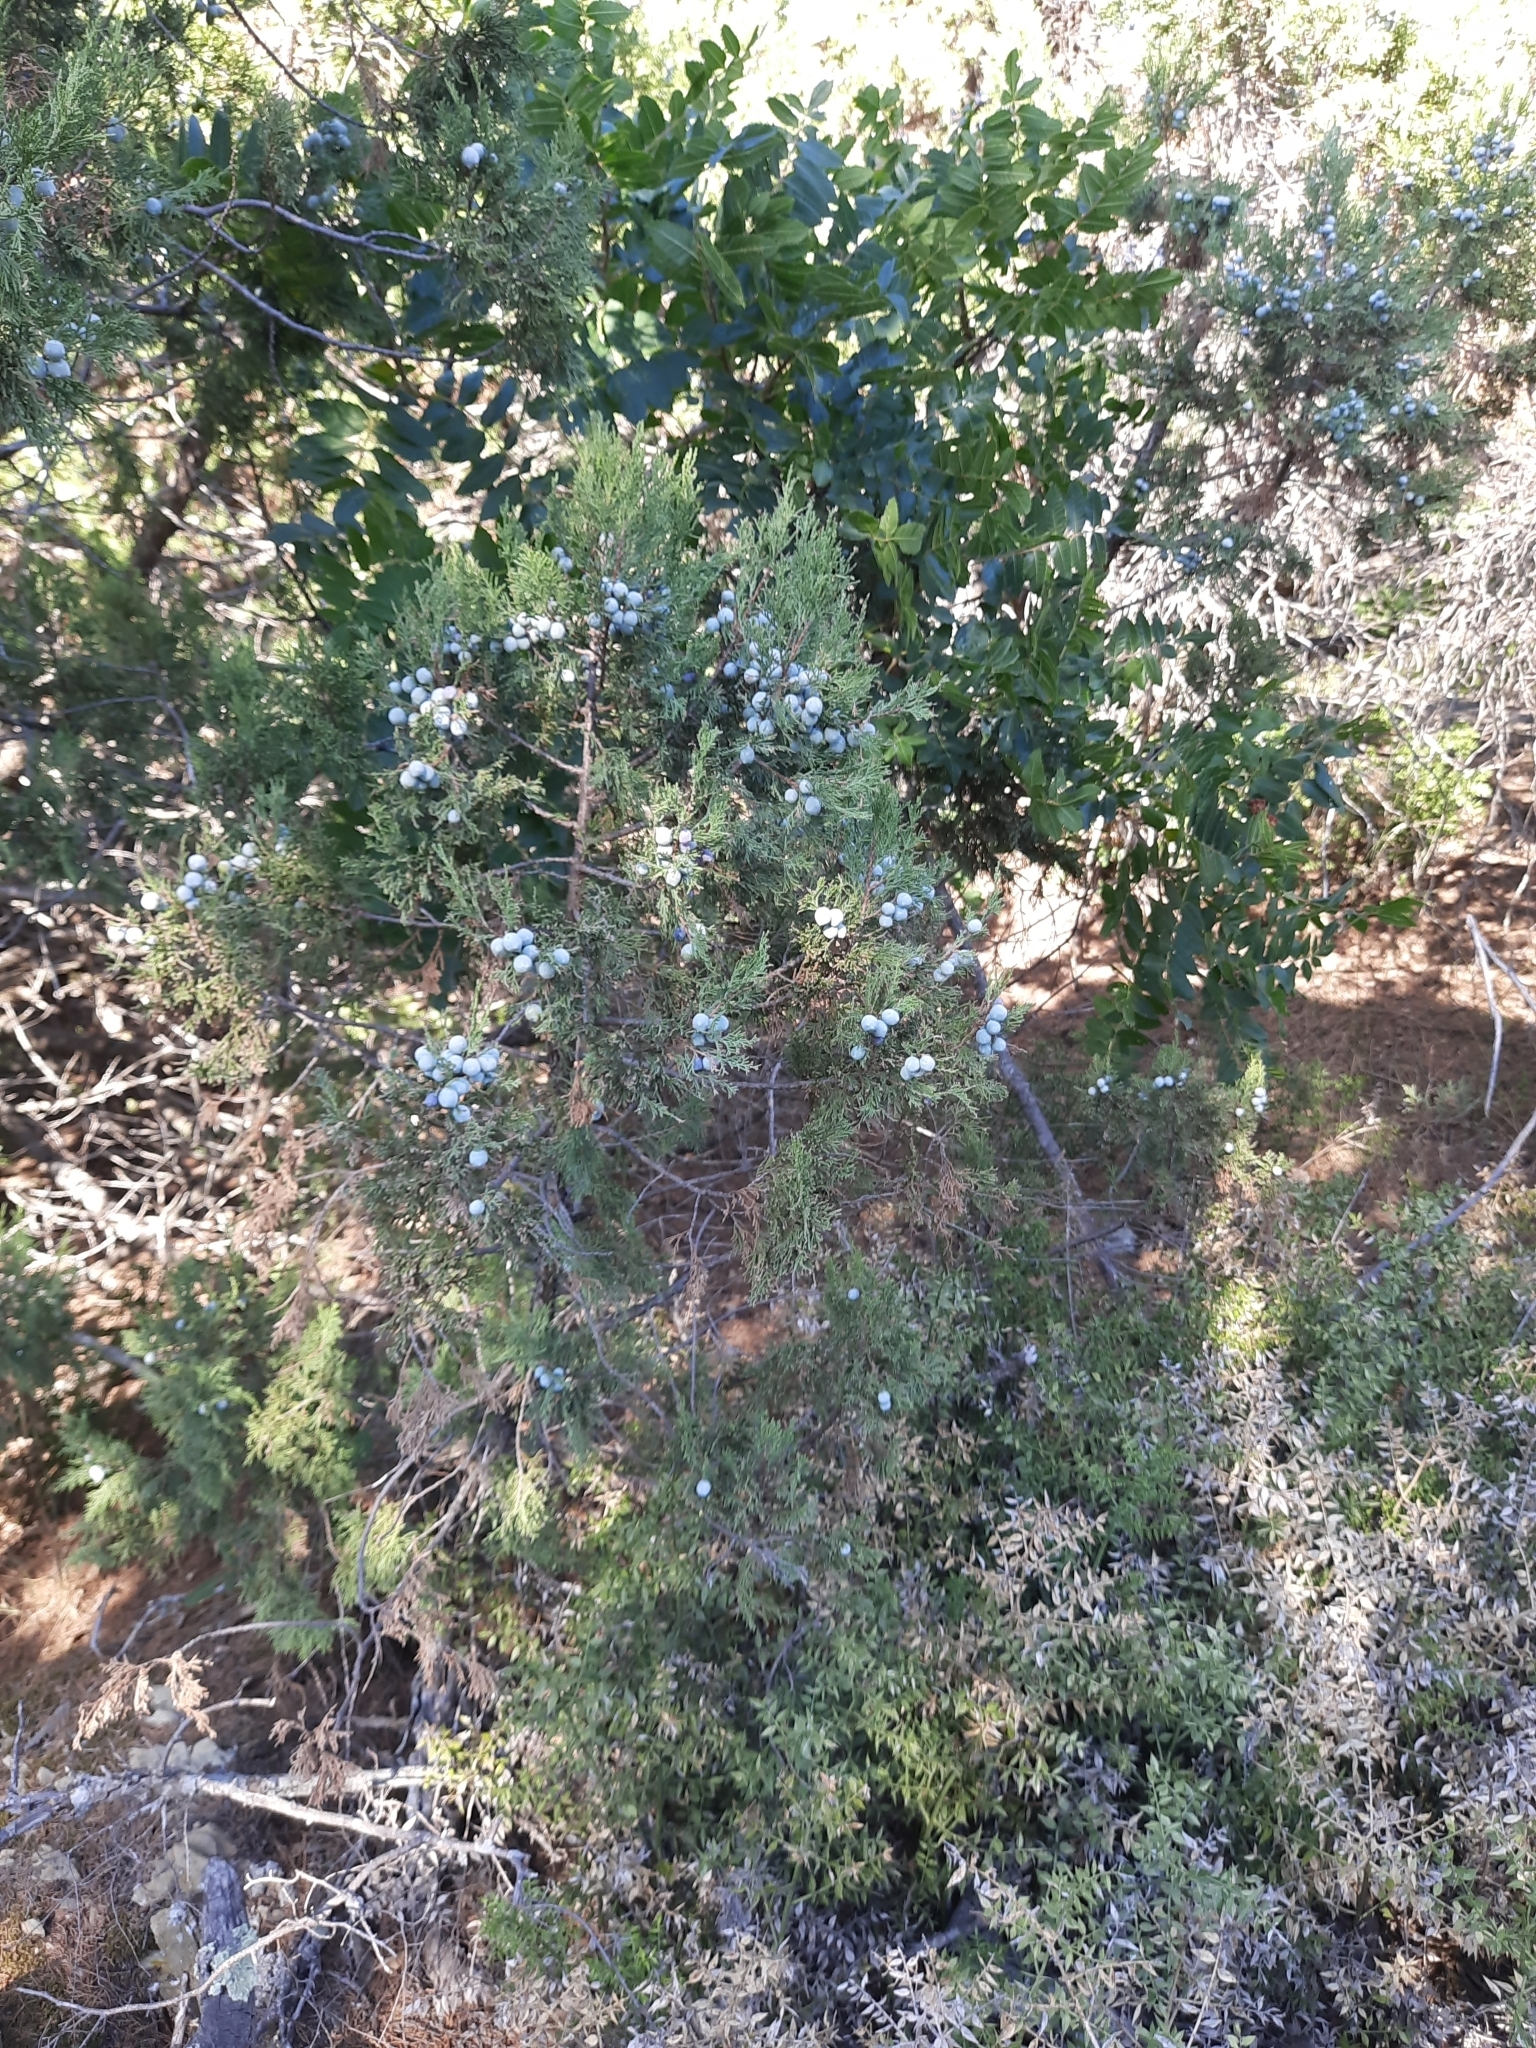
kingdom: Plantae
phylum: Tracheophyta
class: Pinopsida
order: Pinales
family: Cupressaceae
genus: Juniperus
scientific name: Juniperus excelsa
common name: Crimean juniper
